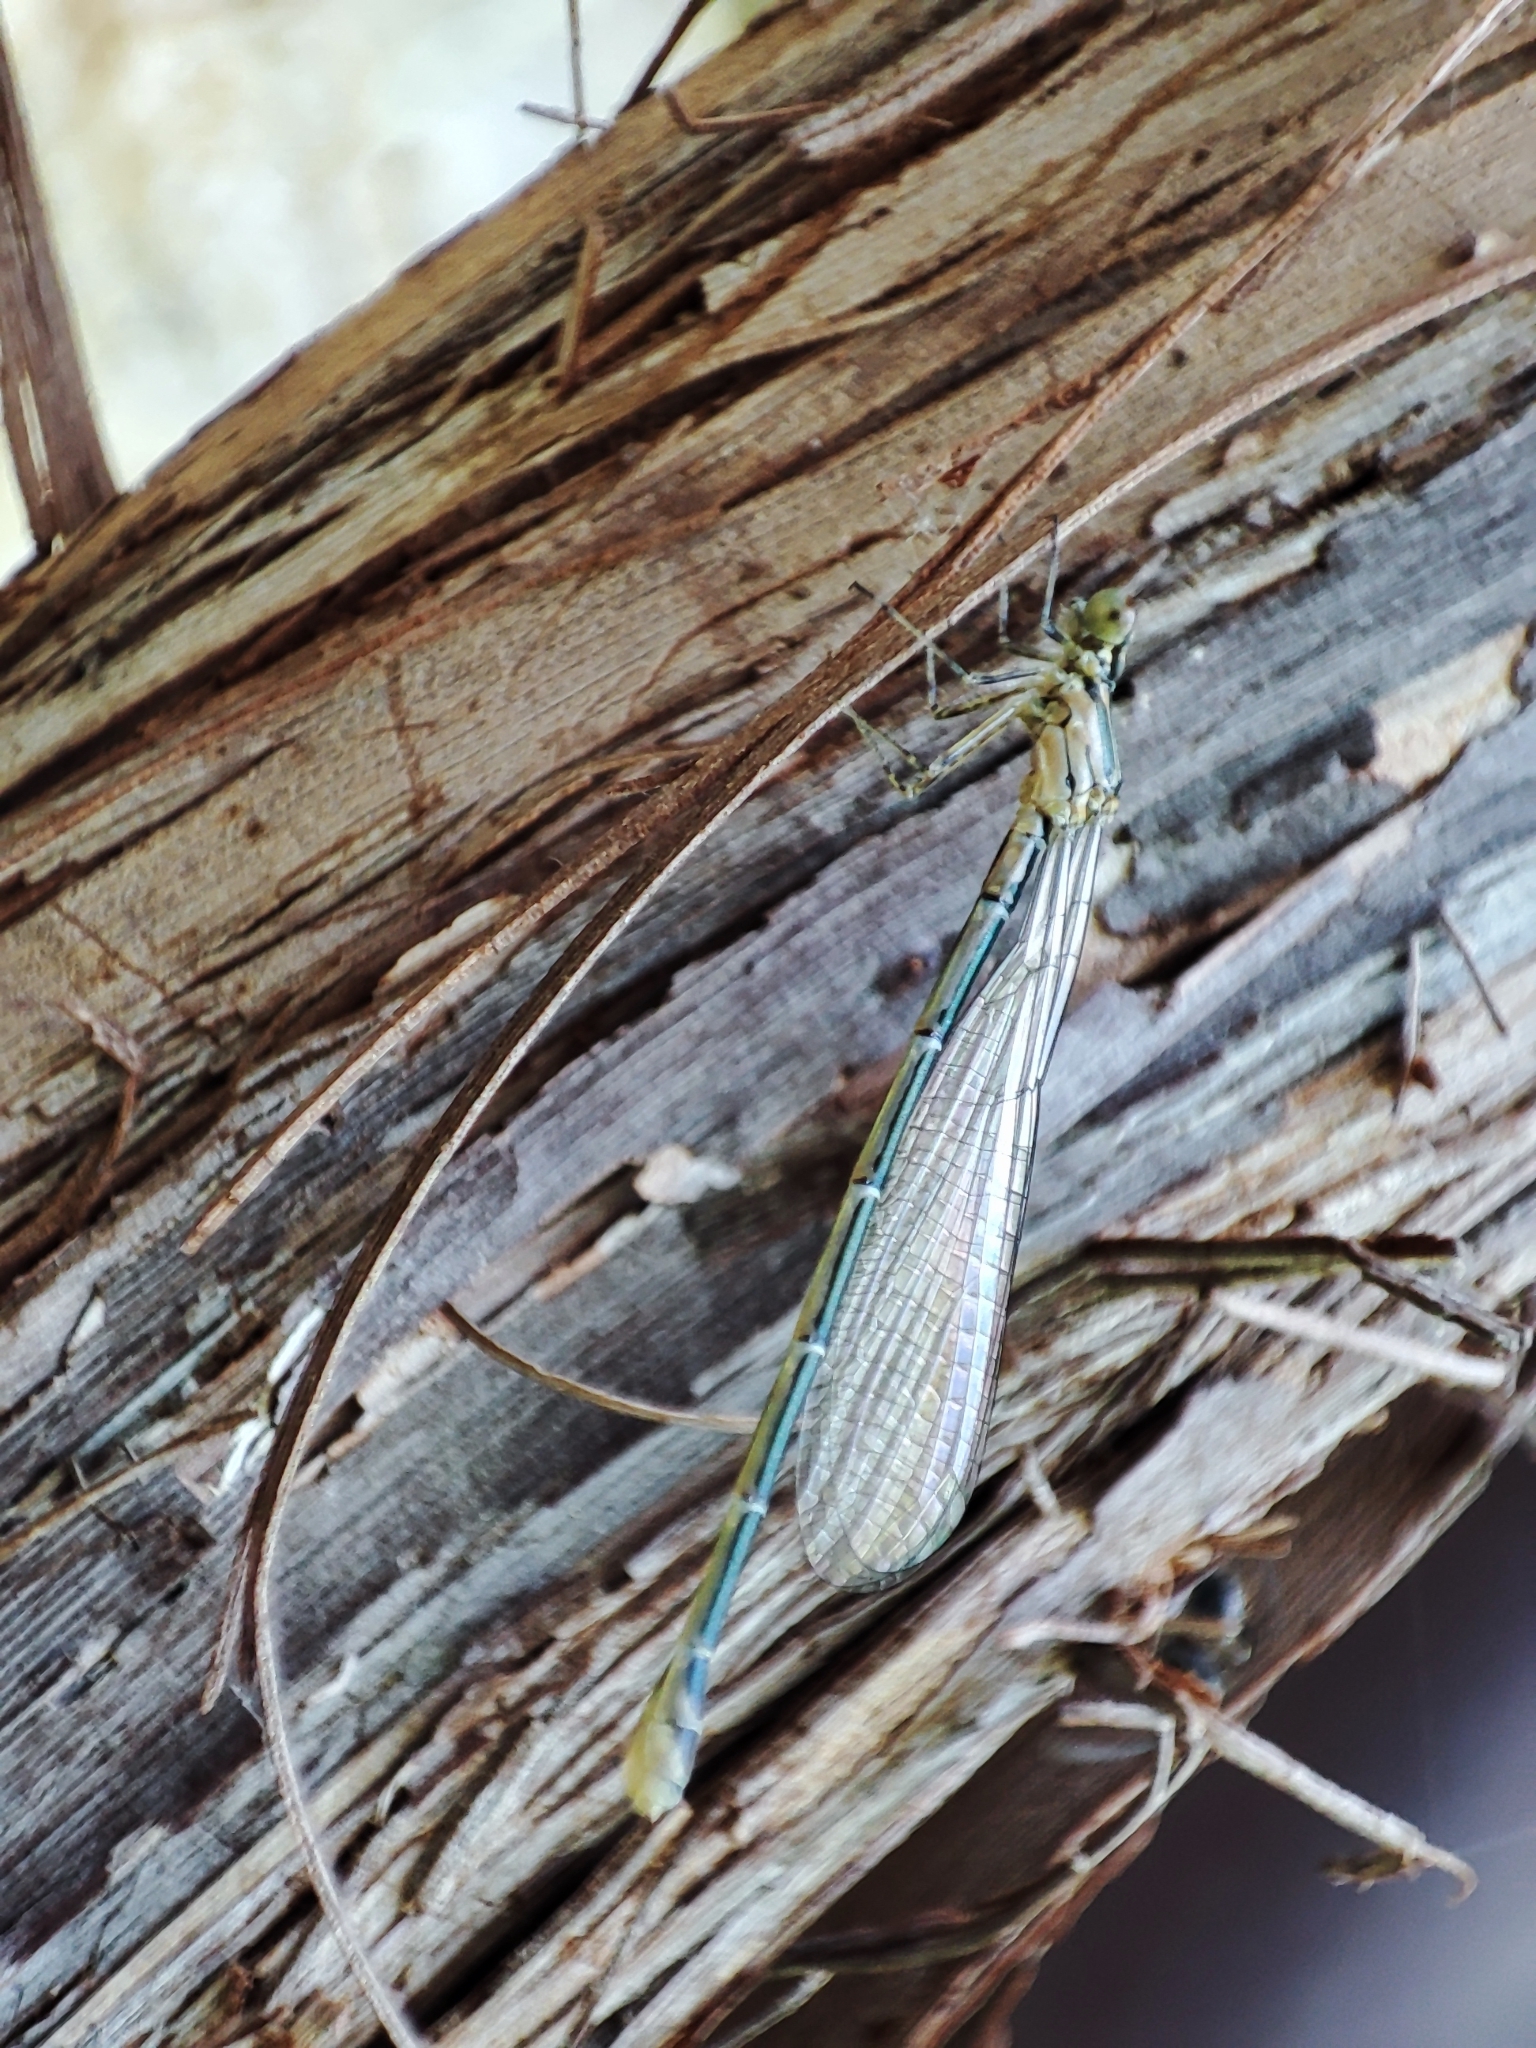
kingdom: Animalia
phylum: Arthropoda
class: Insecta
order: Odonata
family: Coenagrionidae
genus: Coenagrion
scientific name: Coenagrion puella
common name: Azure damselfly
